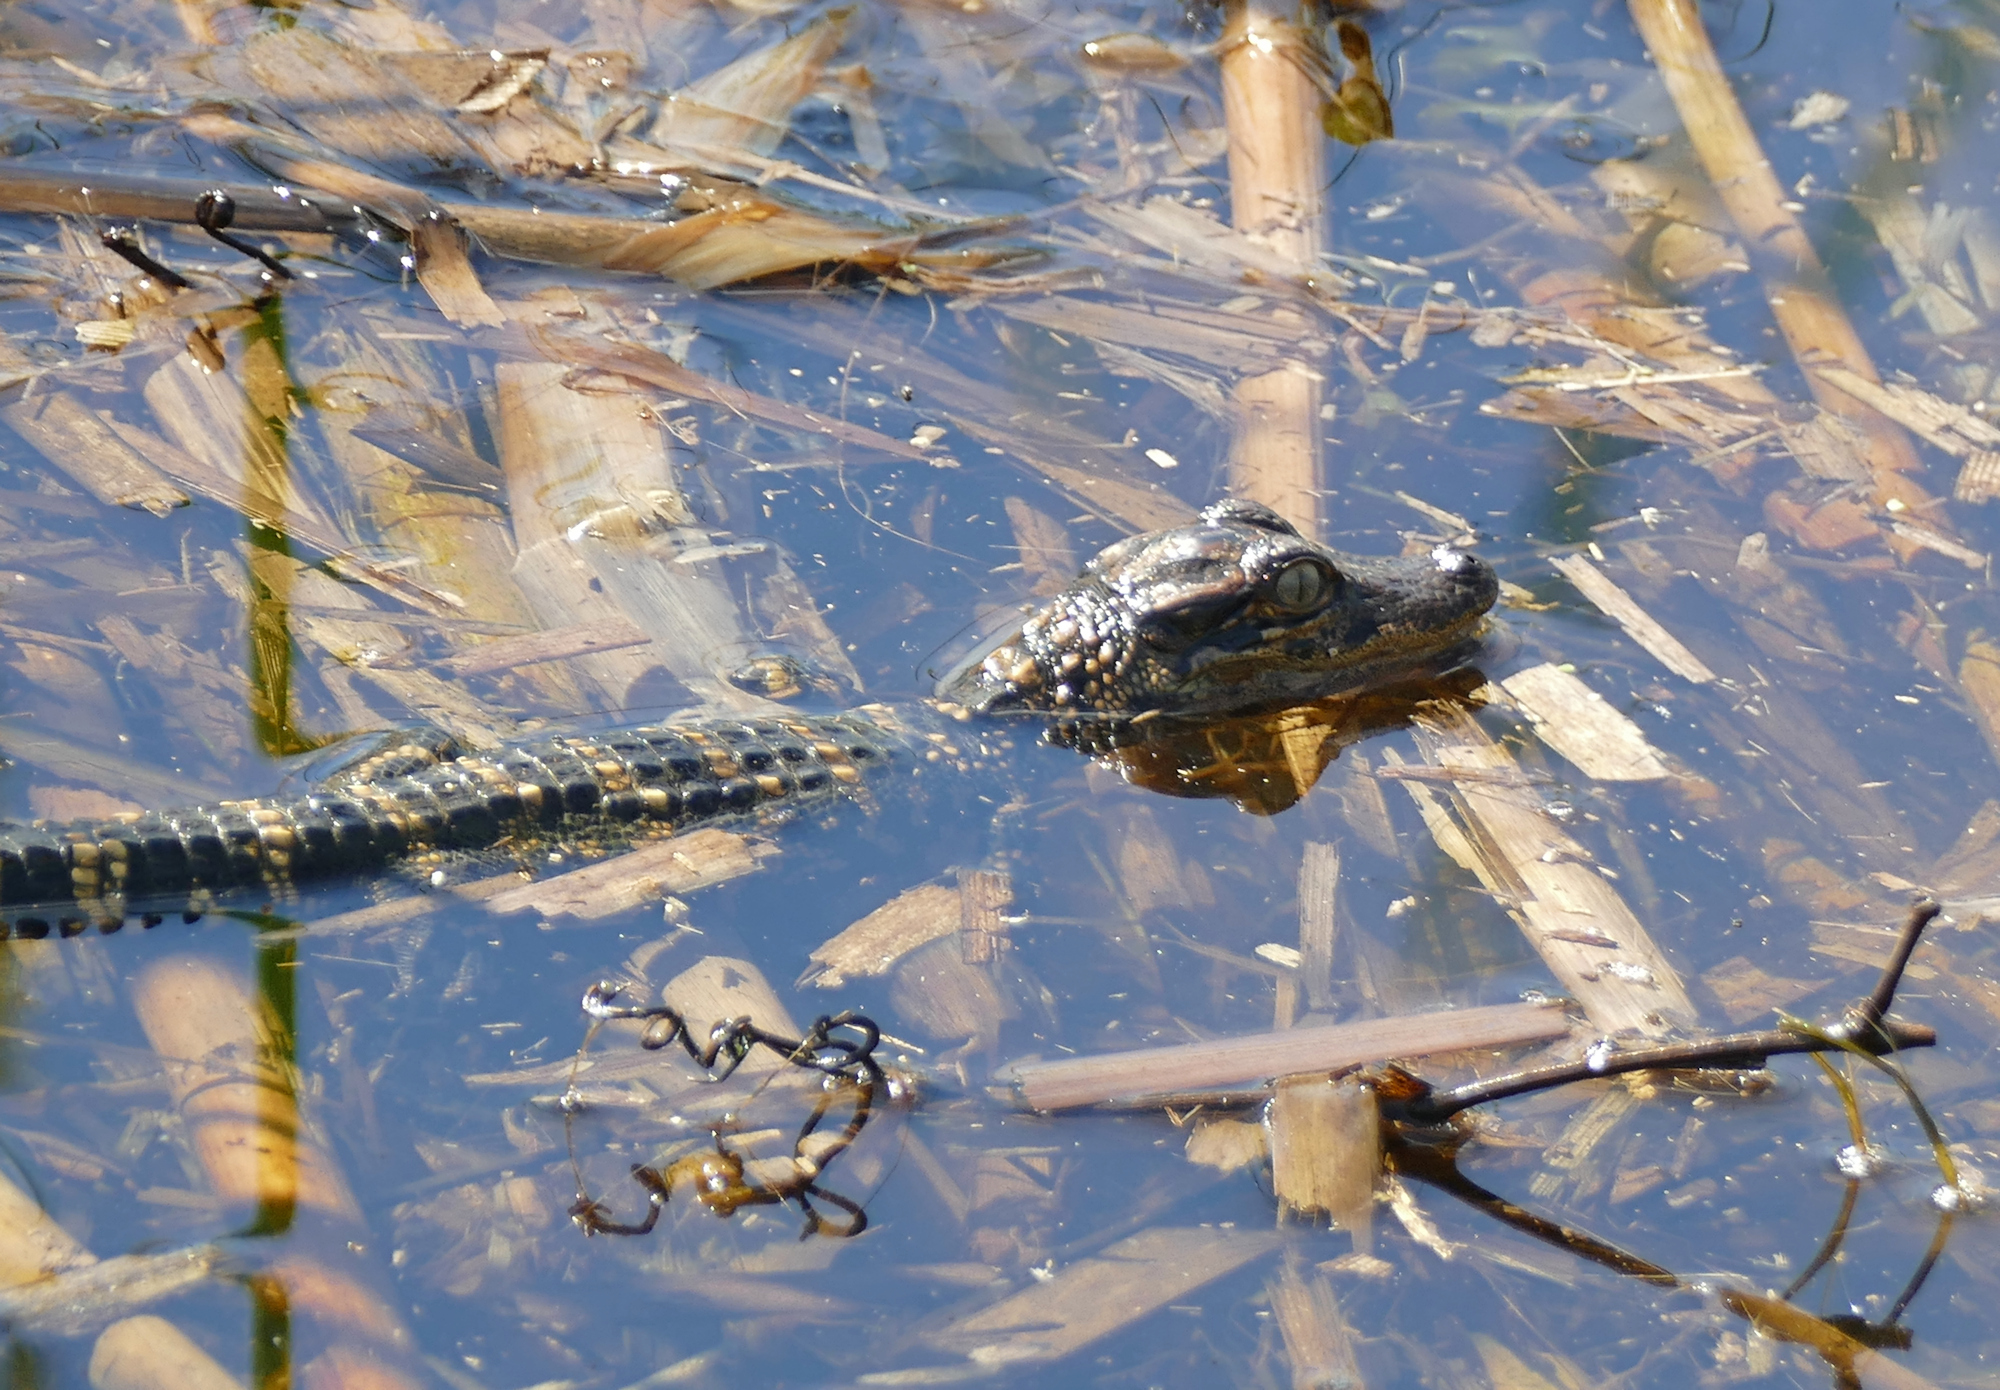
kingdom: Animalia
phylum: Chordata
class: Crocodylia
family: Alligatoridae
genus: Alligator
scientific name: Alligator mississippiensis
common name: American alligator
